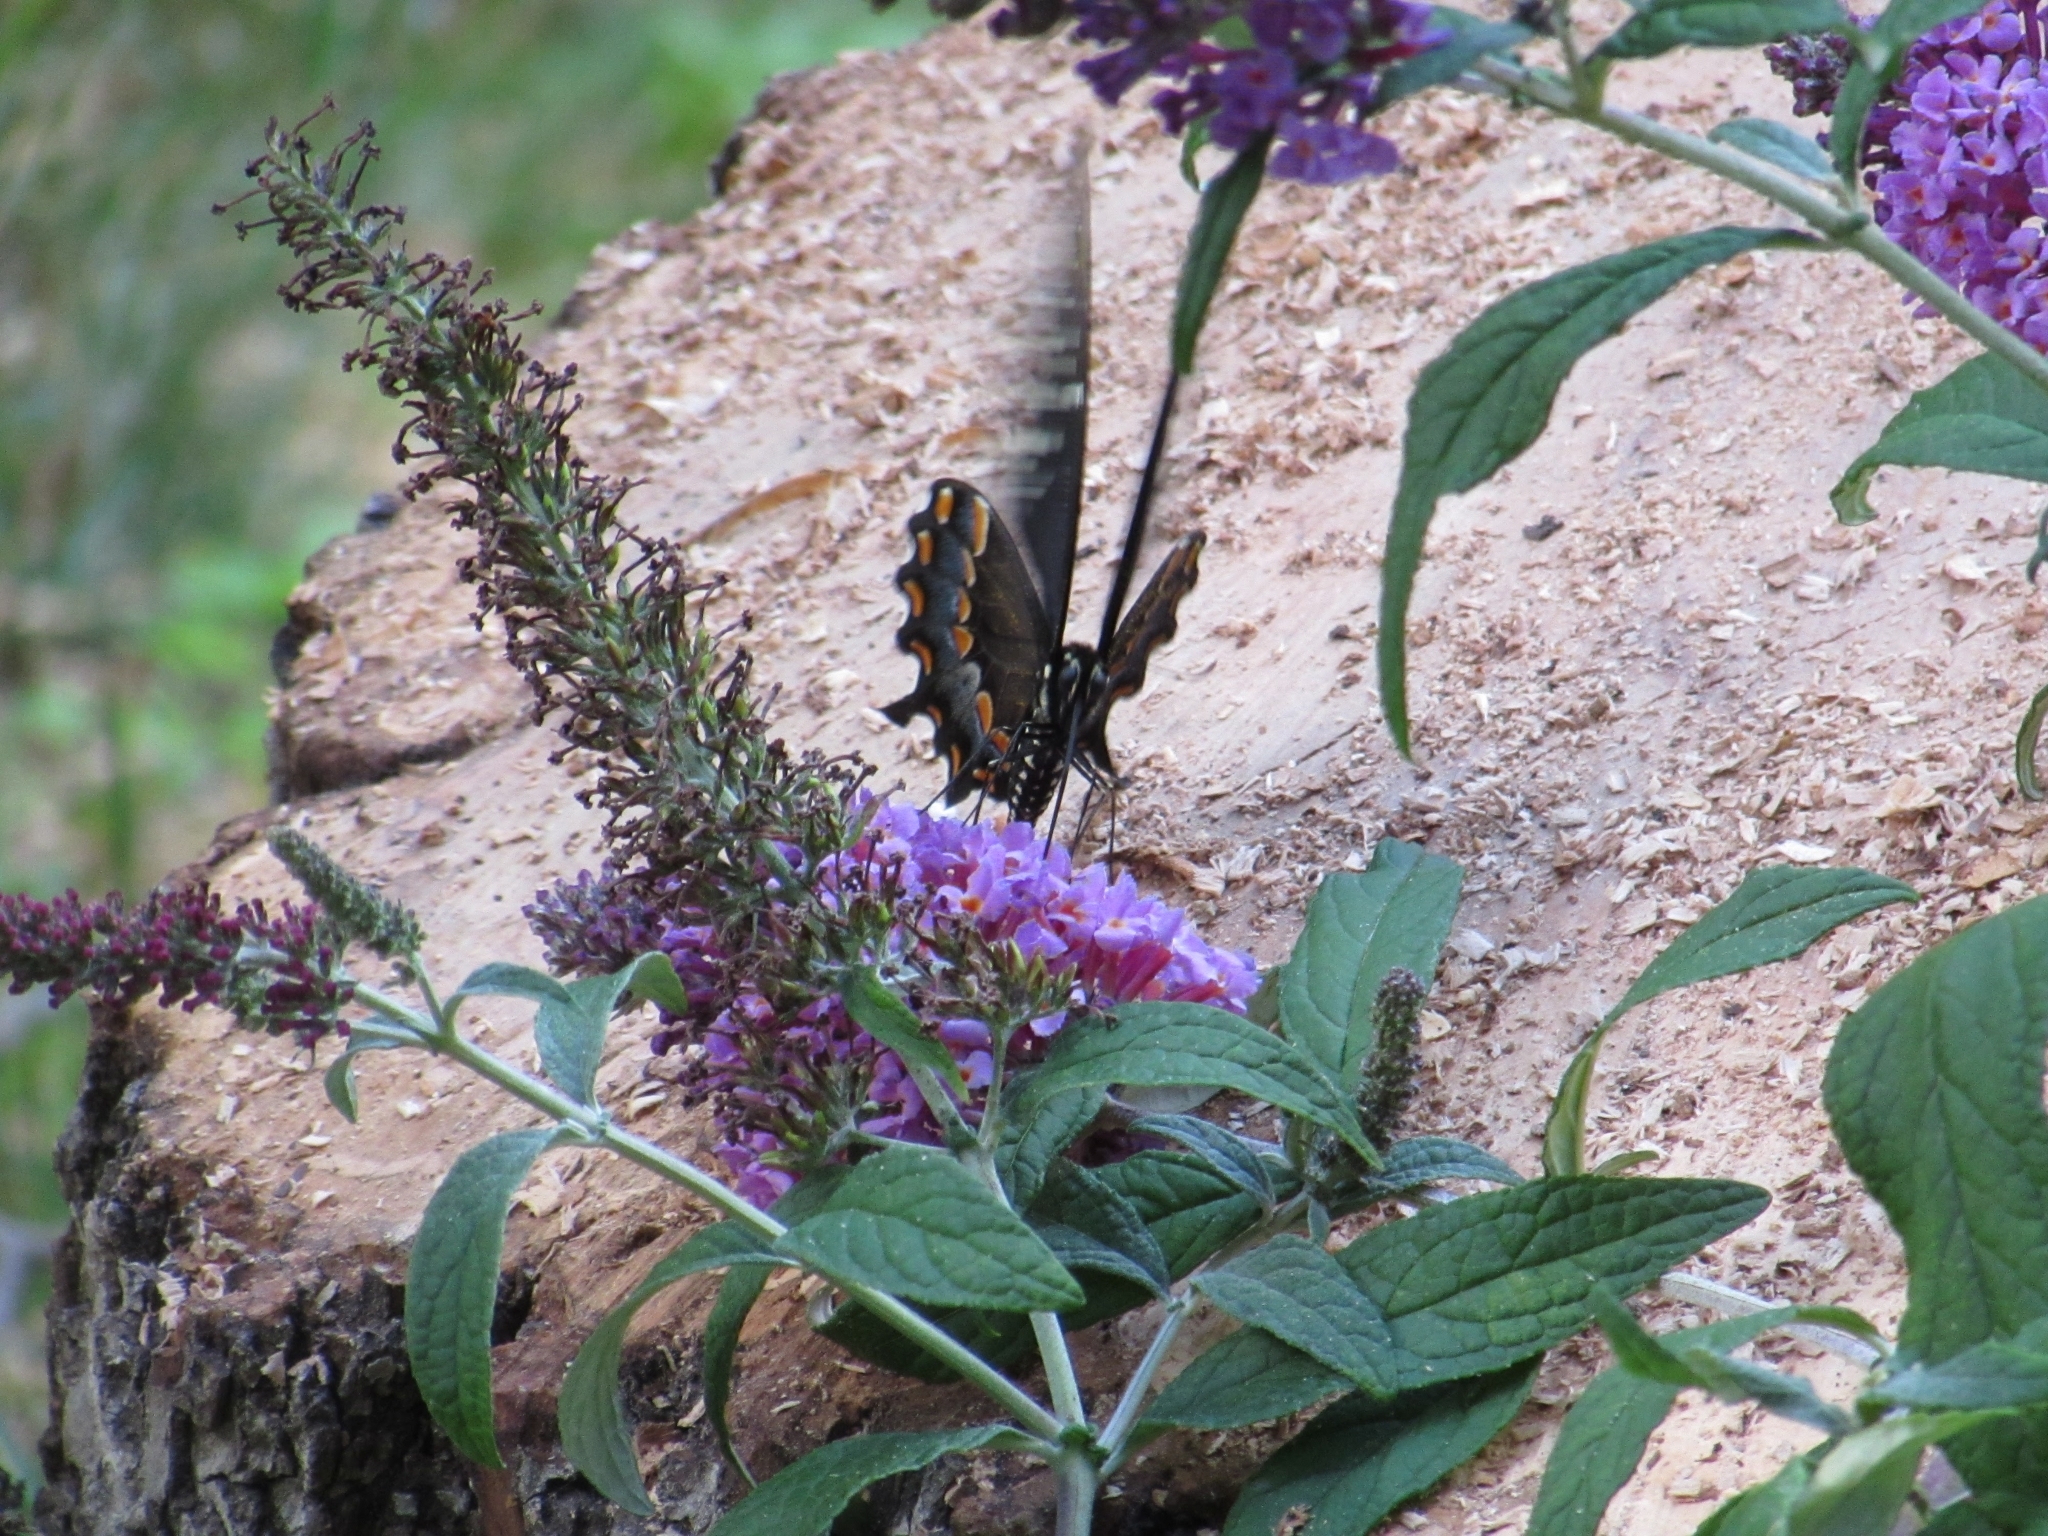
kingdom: Animalia
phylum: Arthropoda
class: Insecta
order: Lepidoptera
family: Papilionidae
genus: Papilio
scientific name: Papilio troilus
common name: Spicebush swallowtail
